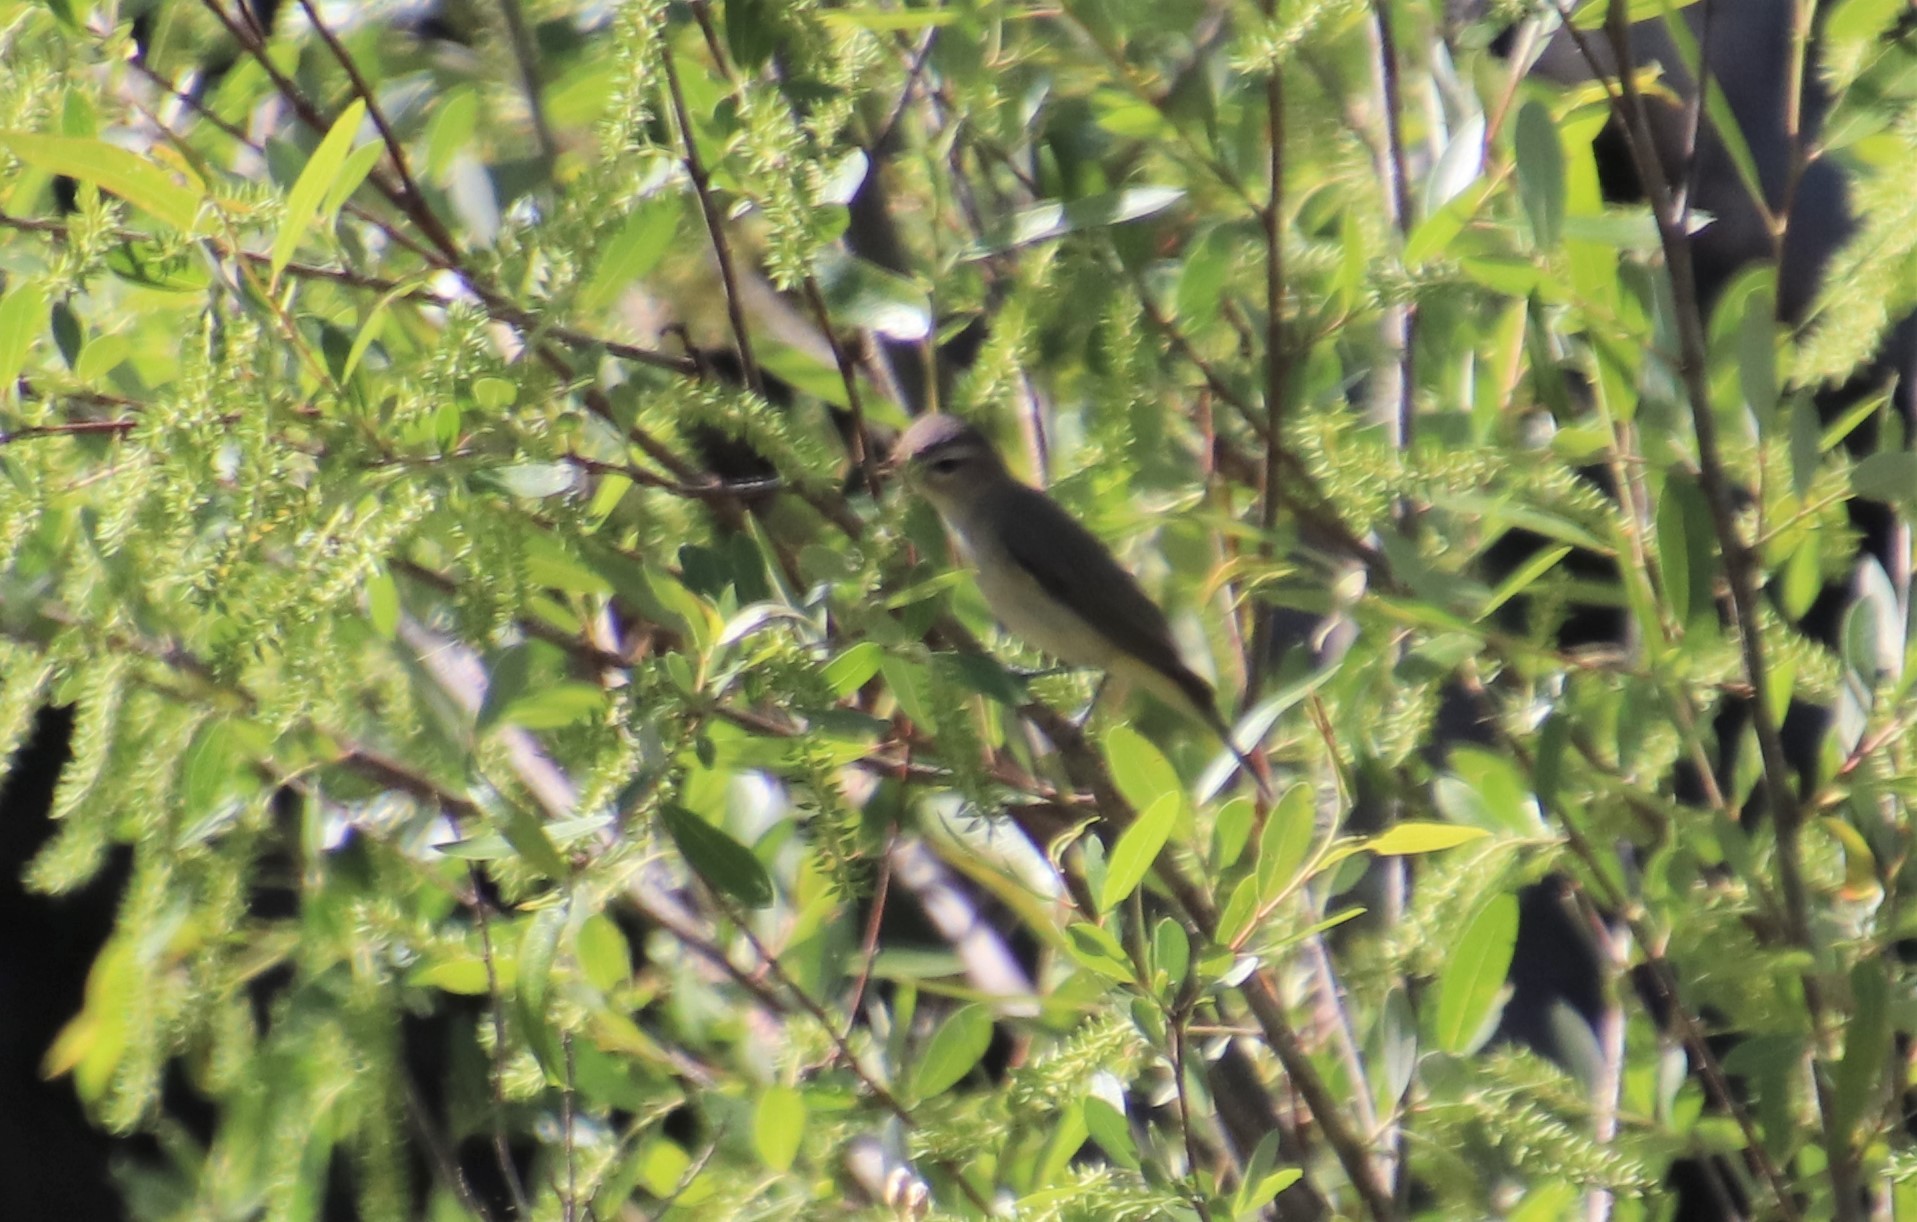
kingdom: Animalia
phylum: Chordata
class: Aves
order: Passeriformes
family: Vireonidae
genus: Vireo
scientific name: Vireo gilvus
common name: Warbling vireo
